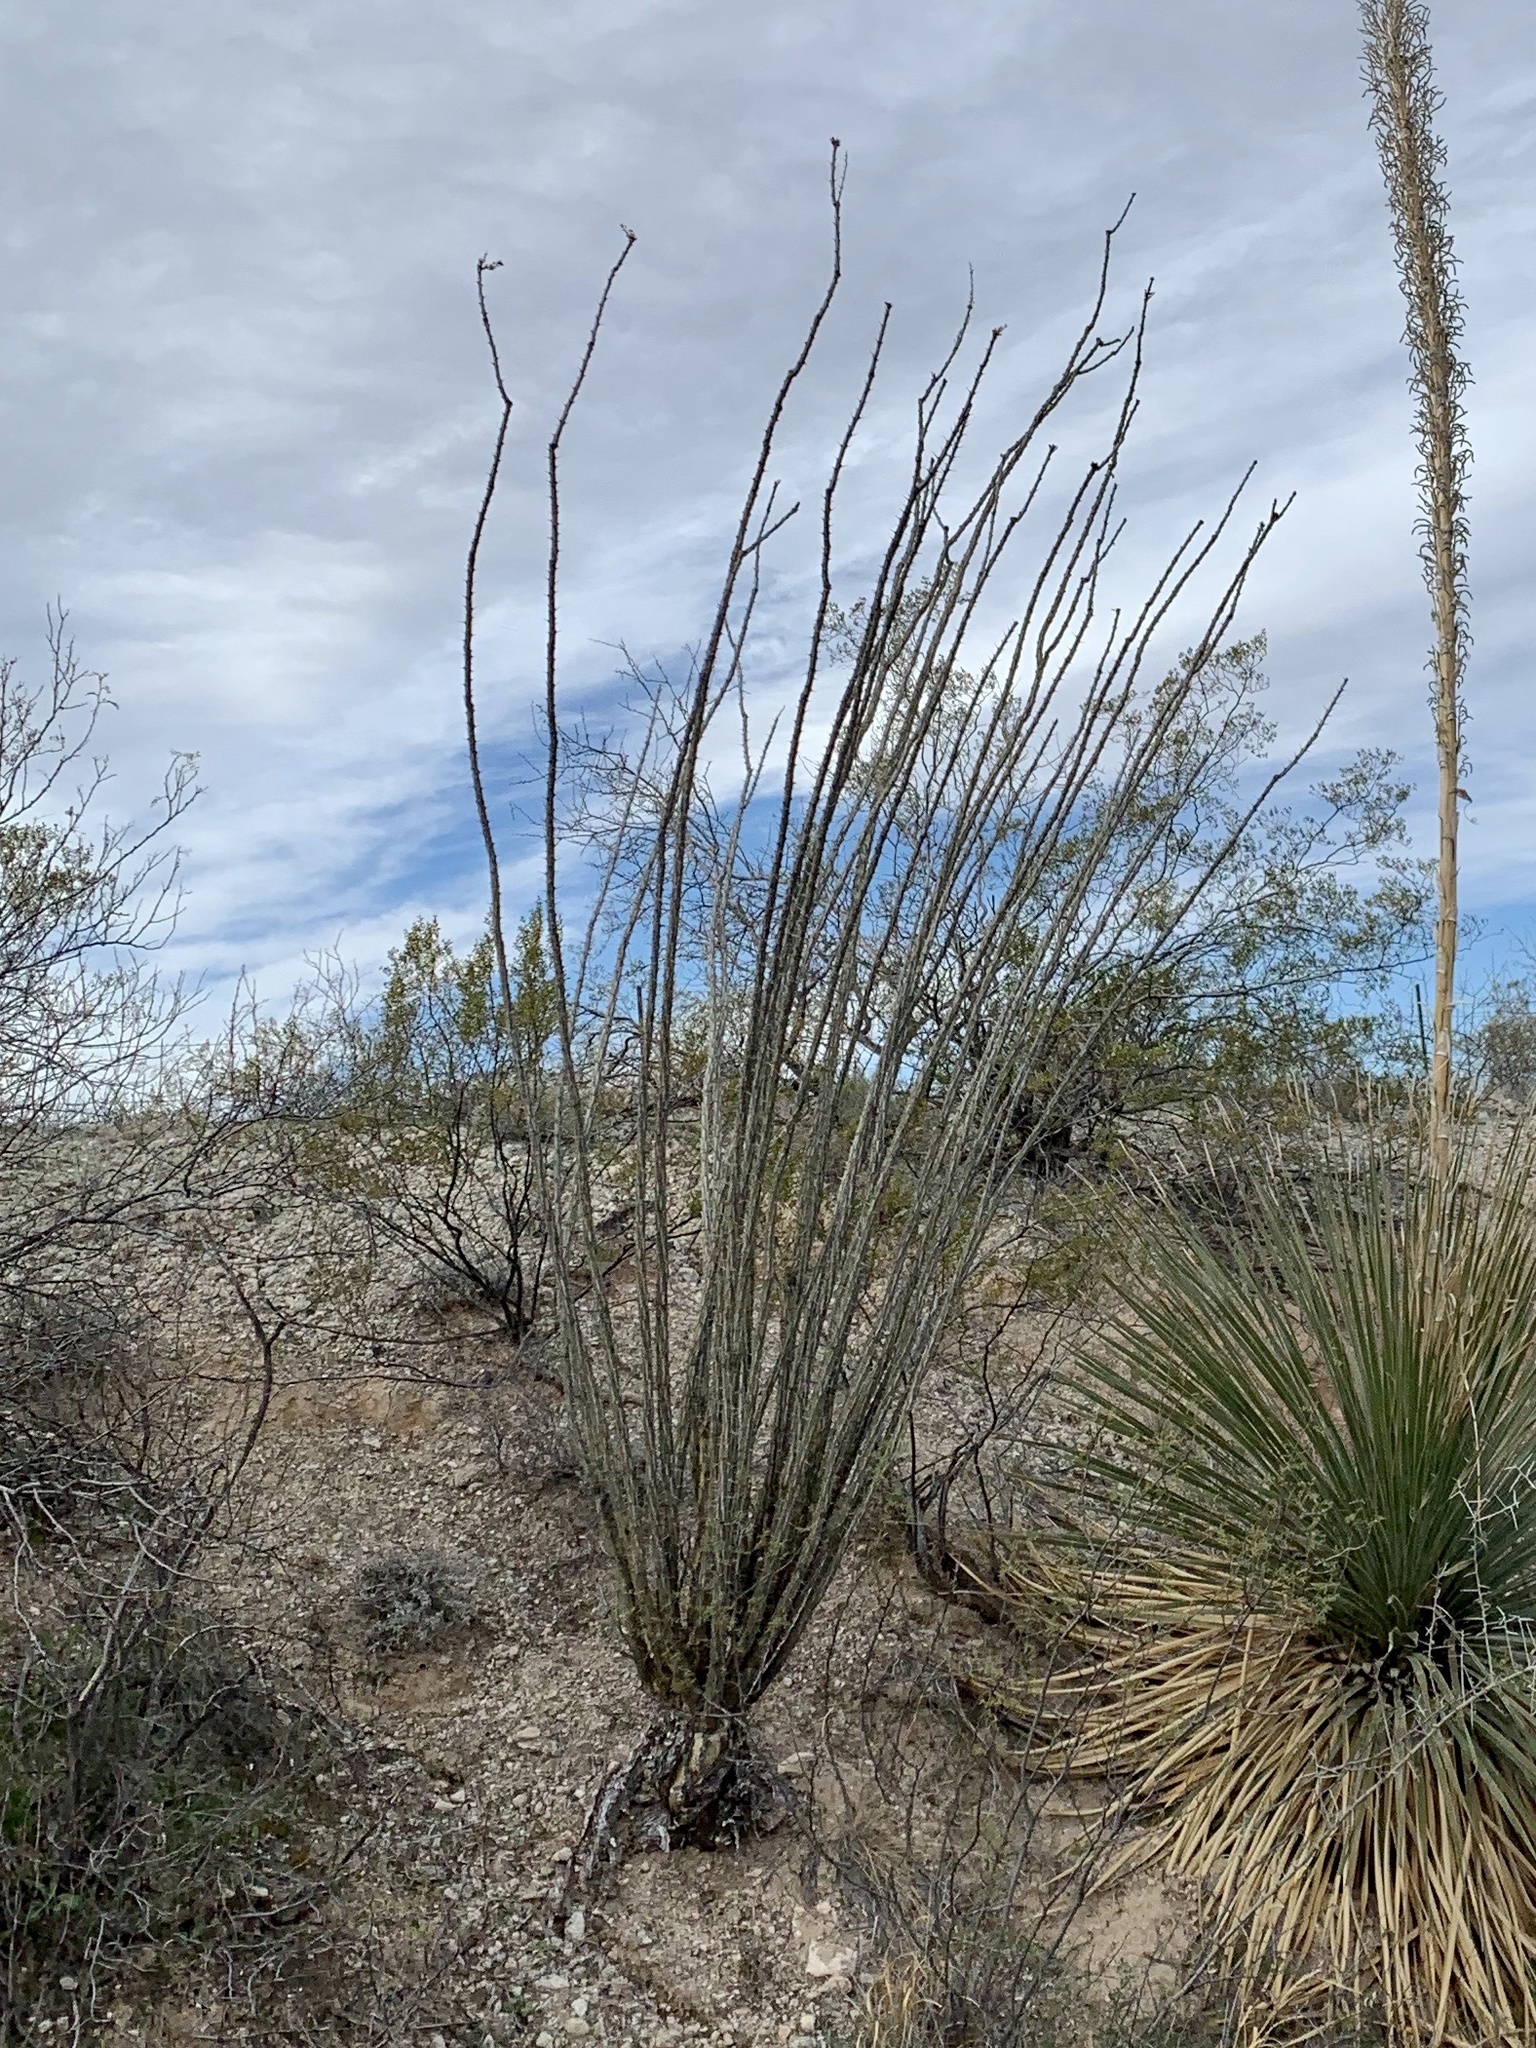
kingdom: Plantae
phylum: Tracheophyta
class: Magnoliopsida
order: Ericales
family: Fouquieriaceae
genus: Fouquieria
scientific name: Fouquieria splendens
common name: Vine-cactus
